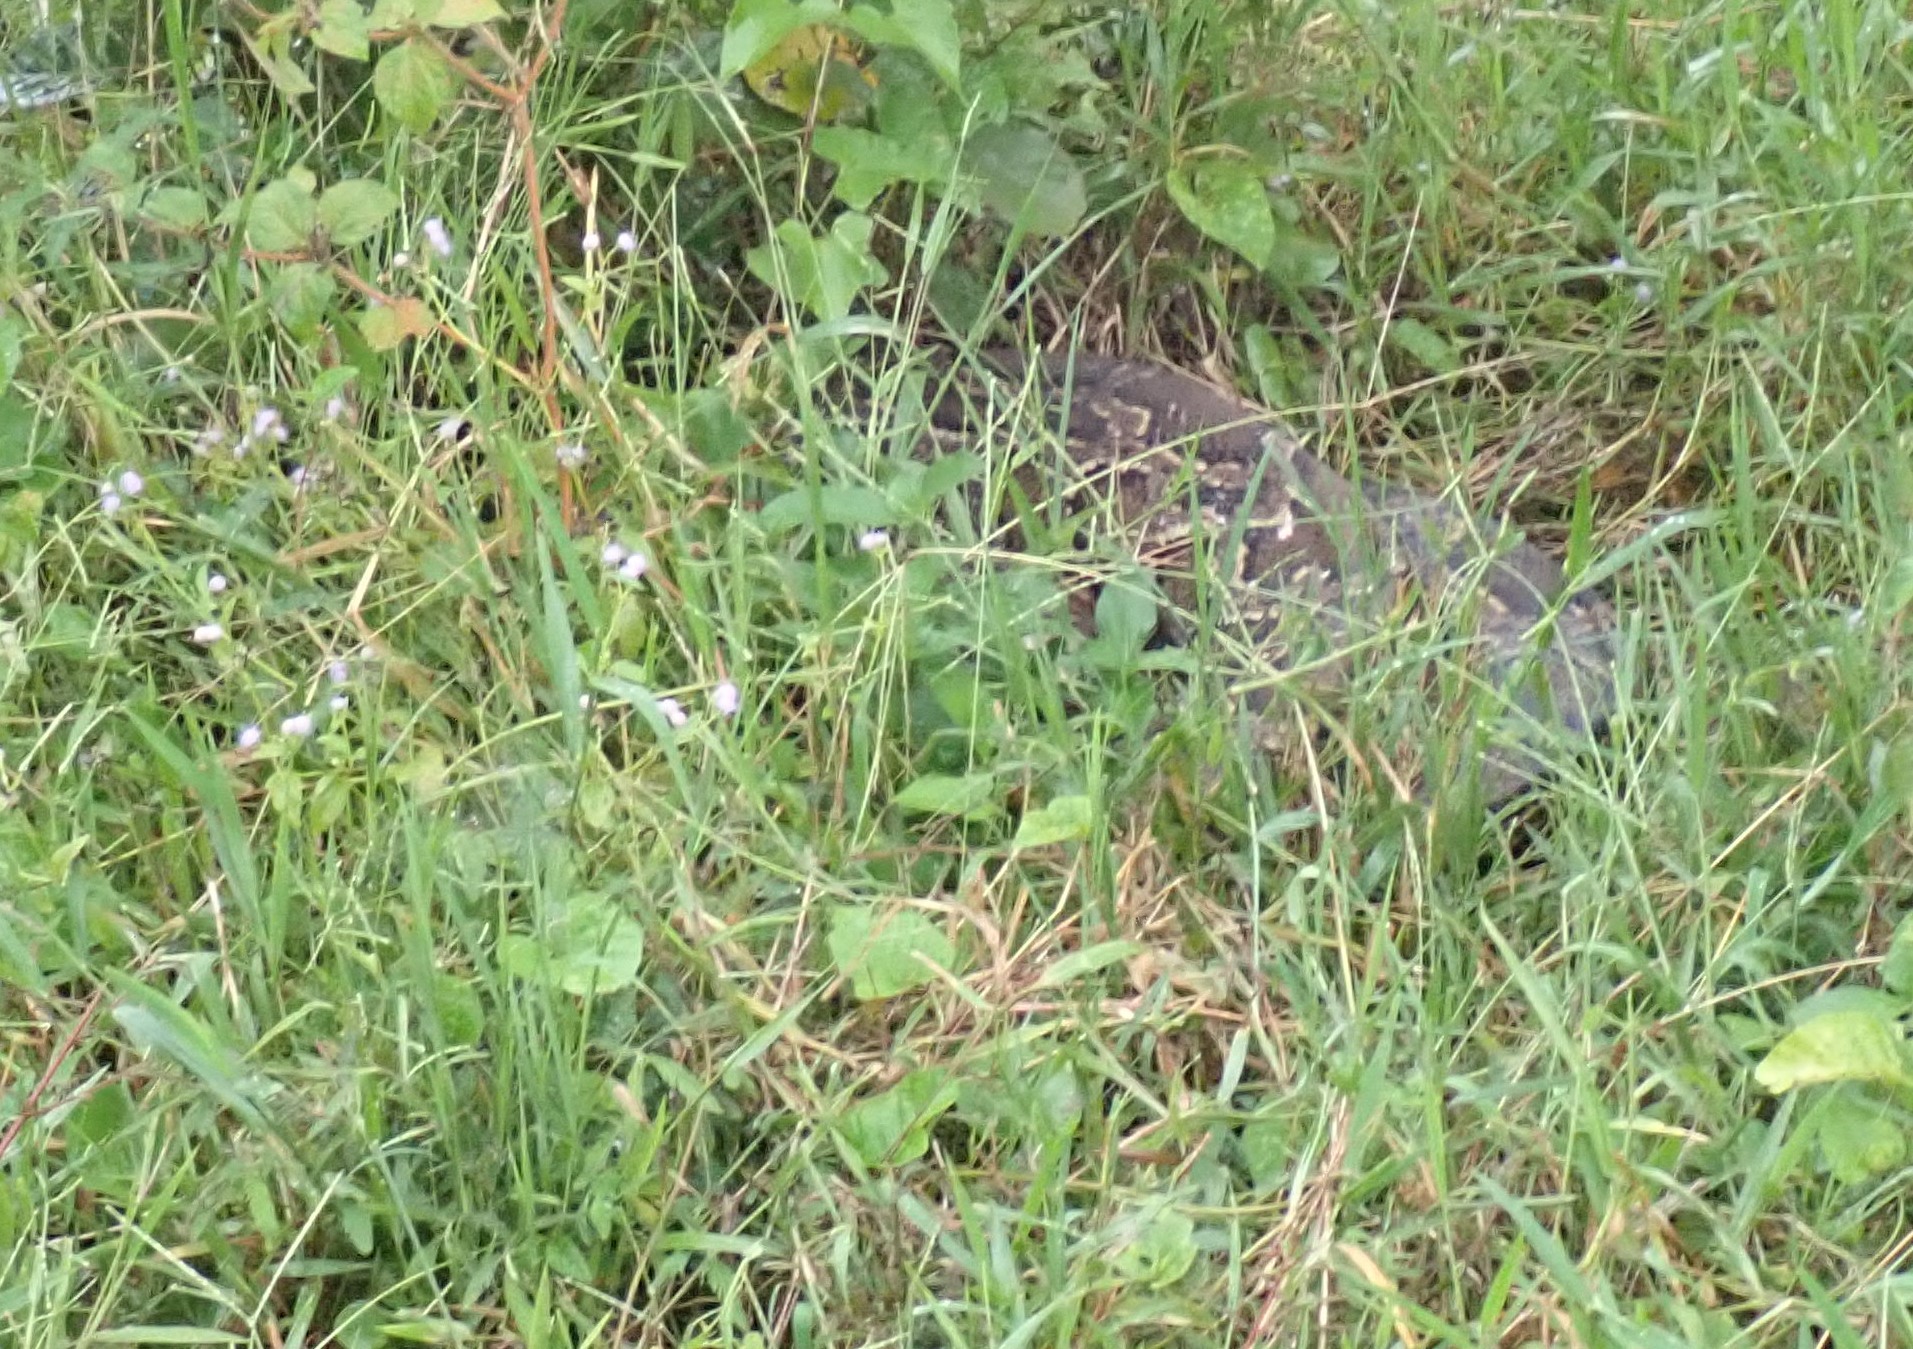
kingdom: Animalia
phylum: Chordata
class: Squamata
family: Pythonidae
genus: Python
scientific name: Python bivittatus
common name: Burmese python
